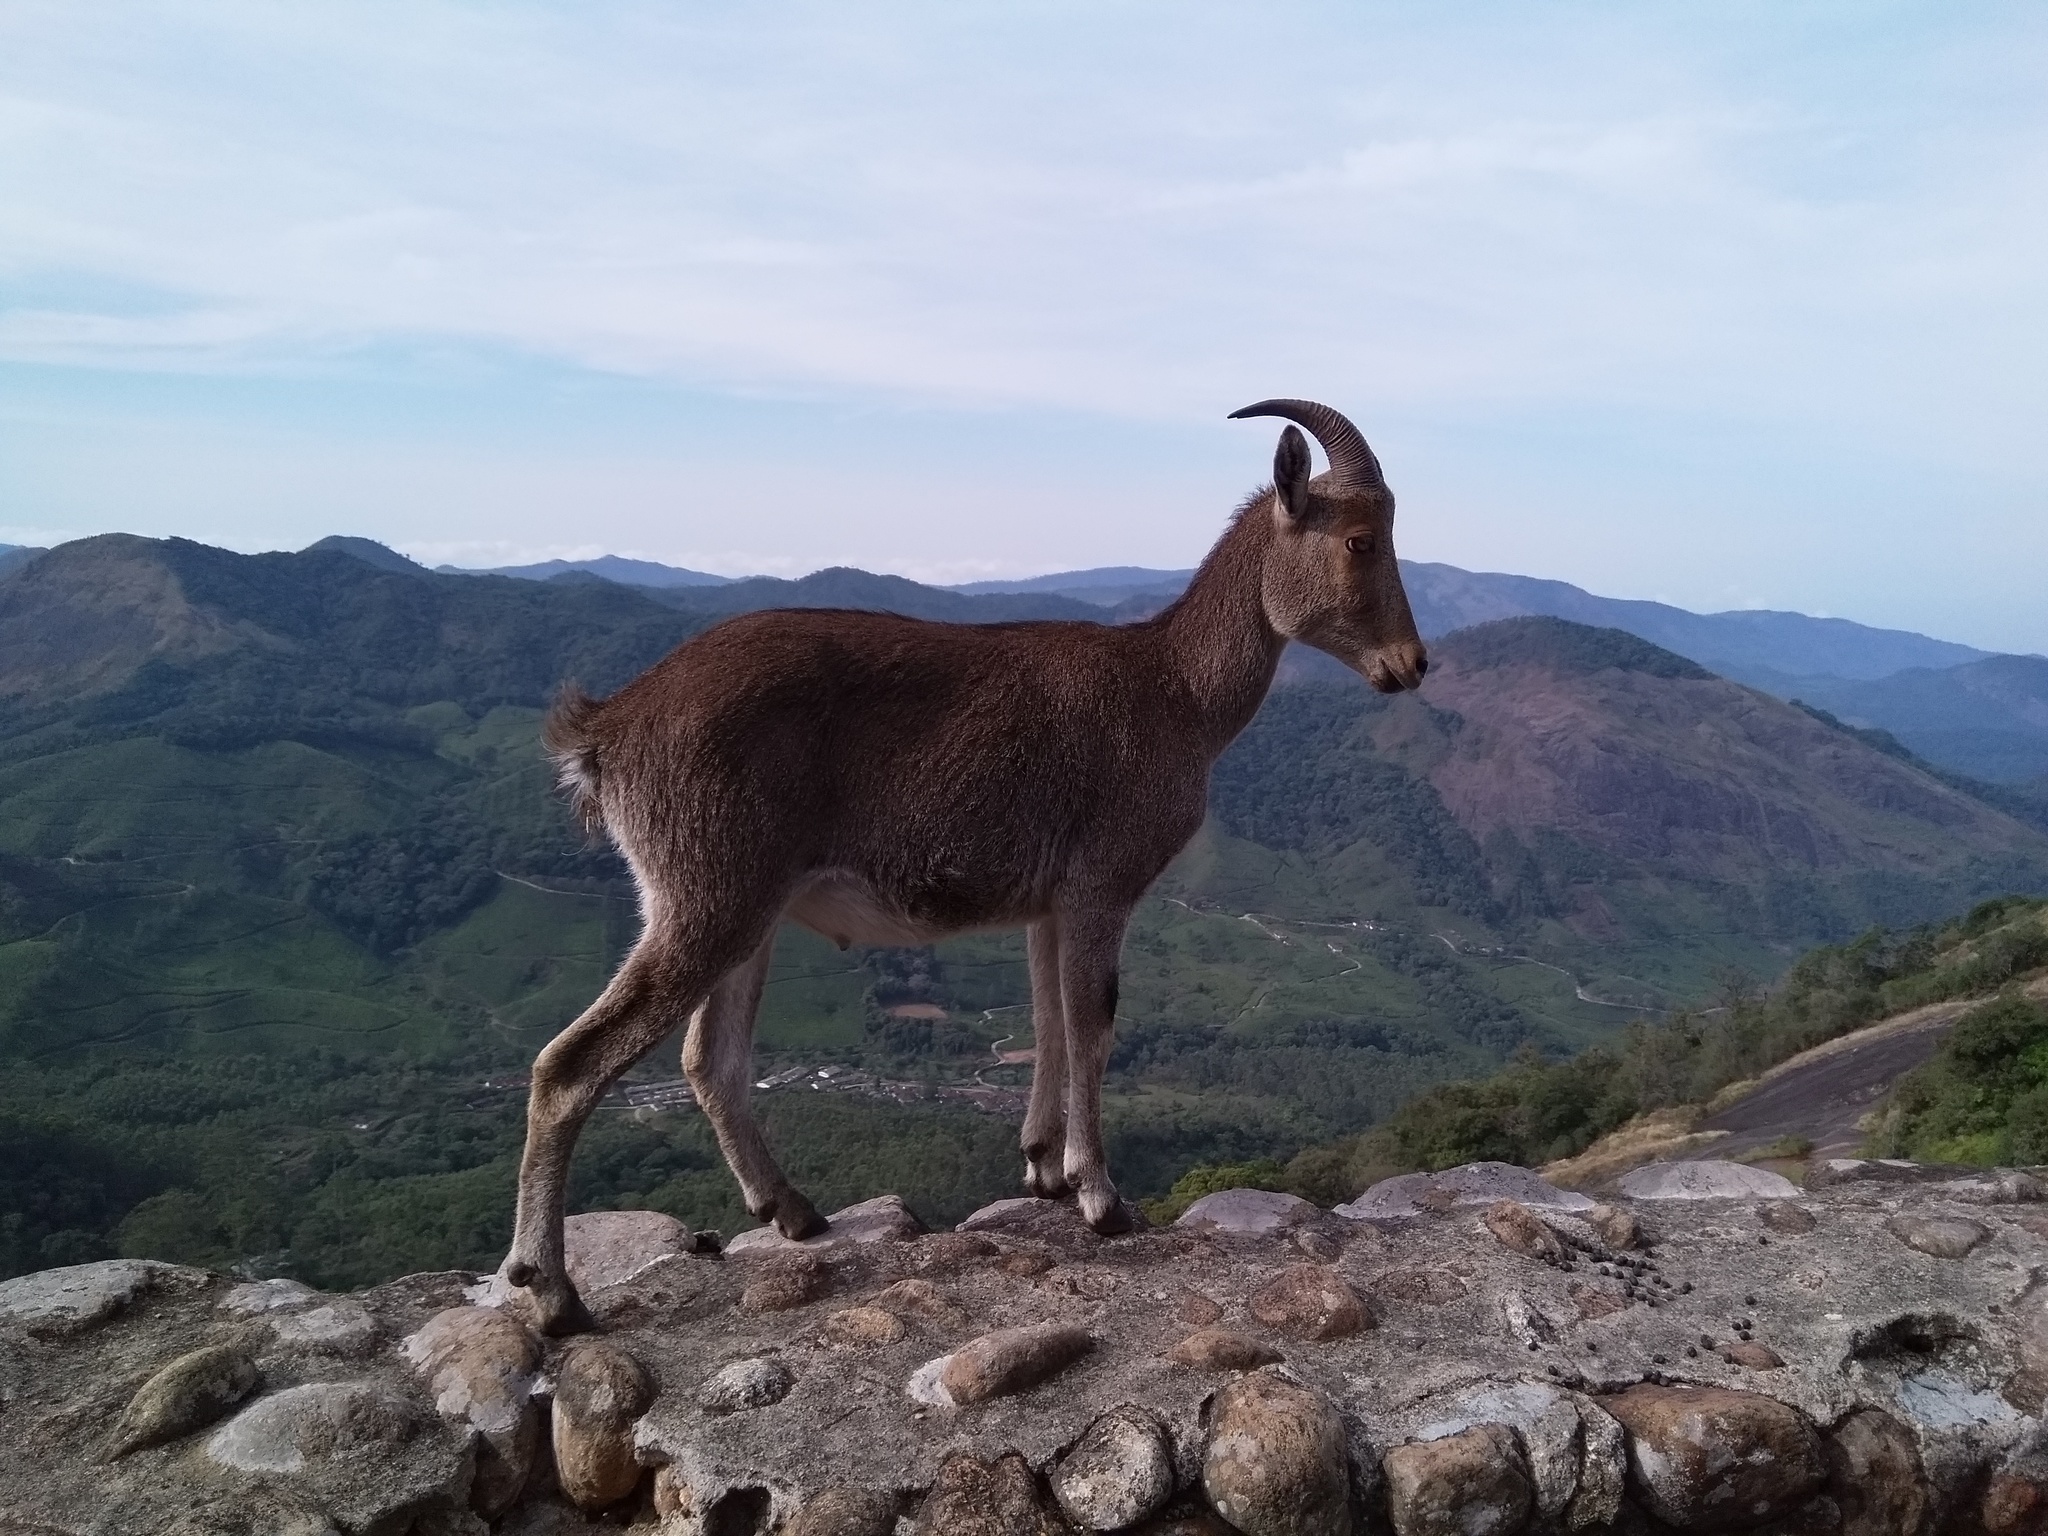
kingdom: Animalia
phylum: Chordata
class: Mammalia
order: Artiodactyla
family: Bovidae
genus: Hemitragus
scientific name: Hemitragus hylocrius
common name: Nilgiri tahr
